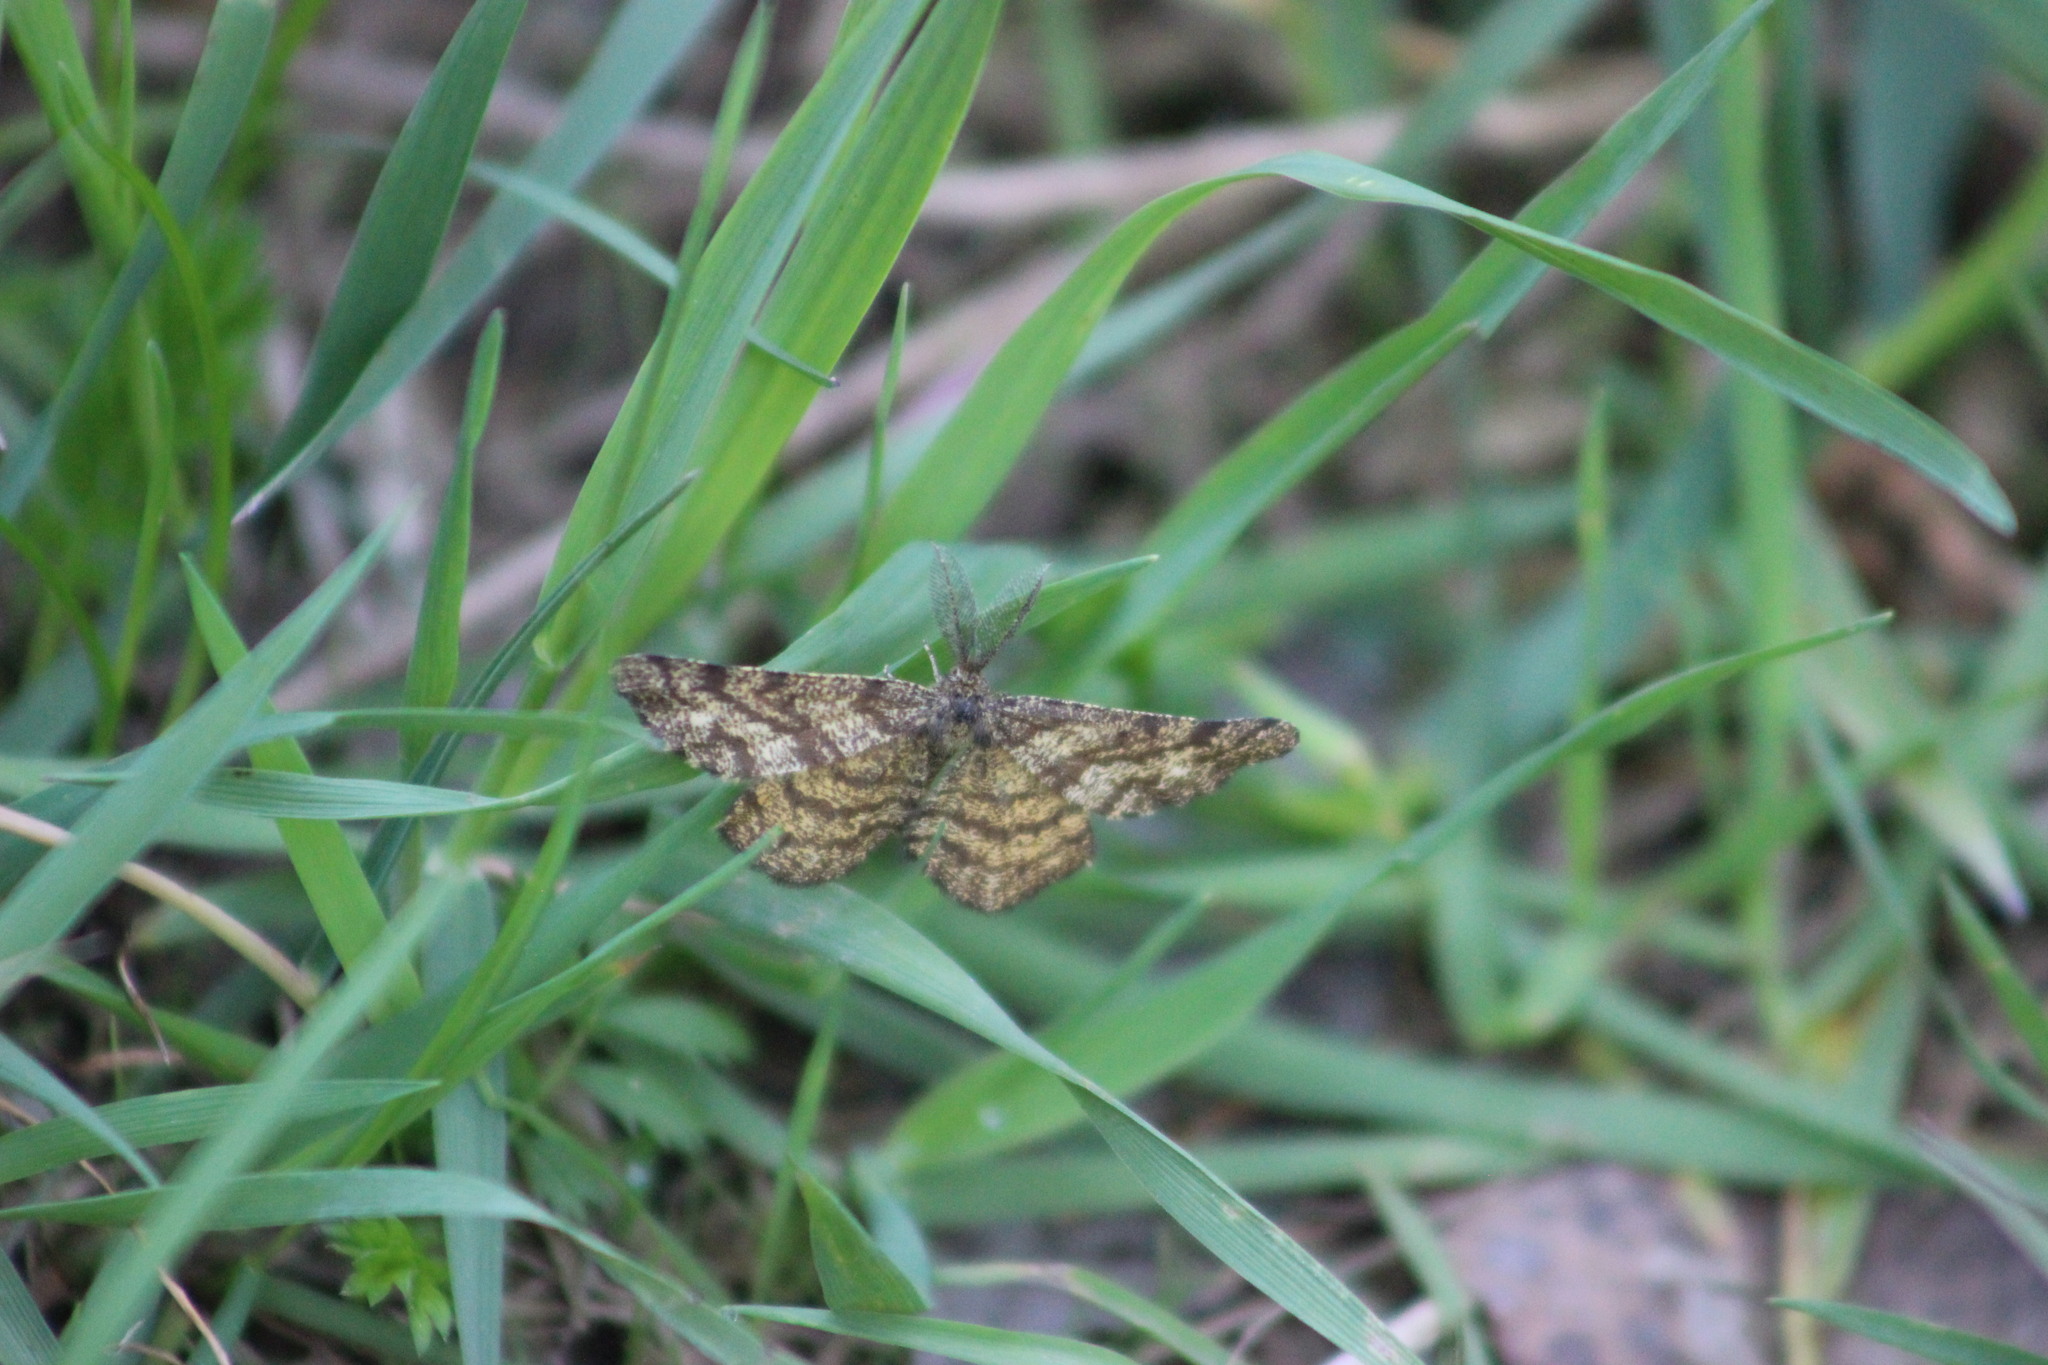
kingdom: Animalia
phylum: Arthropoda
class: Insecta
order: Lepidoptera
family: Geometridae
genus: Ematurga
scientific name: Ematurga atomaria
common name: Common heath
